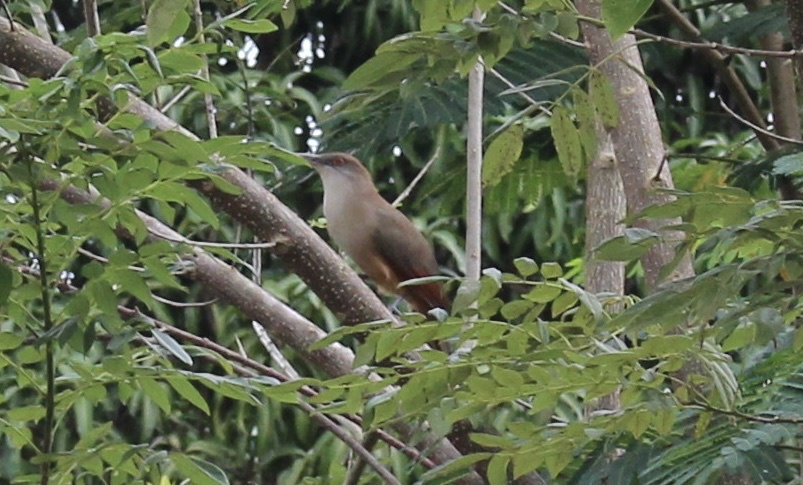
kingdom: Animalia
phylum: Chordata
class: Aves
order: Cuculiformes
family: Cuculidae
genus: Saurothera
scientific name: Saurothera merlini
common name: Great lizard-cuckoo
